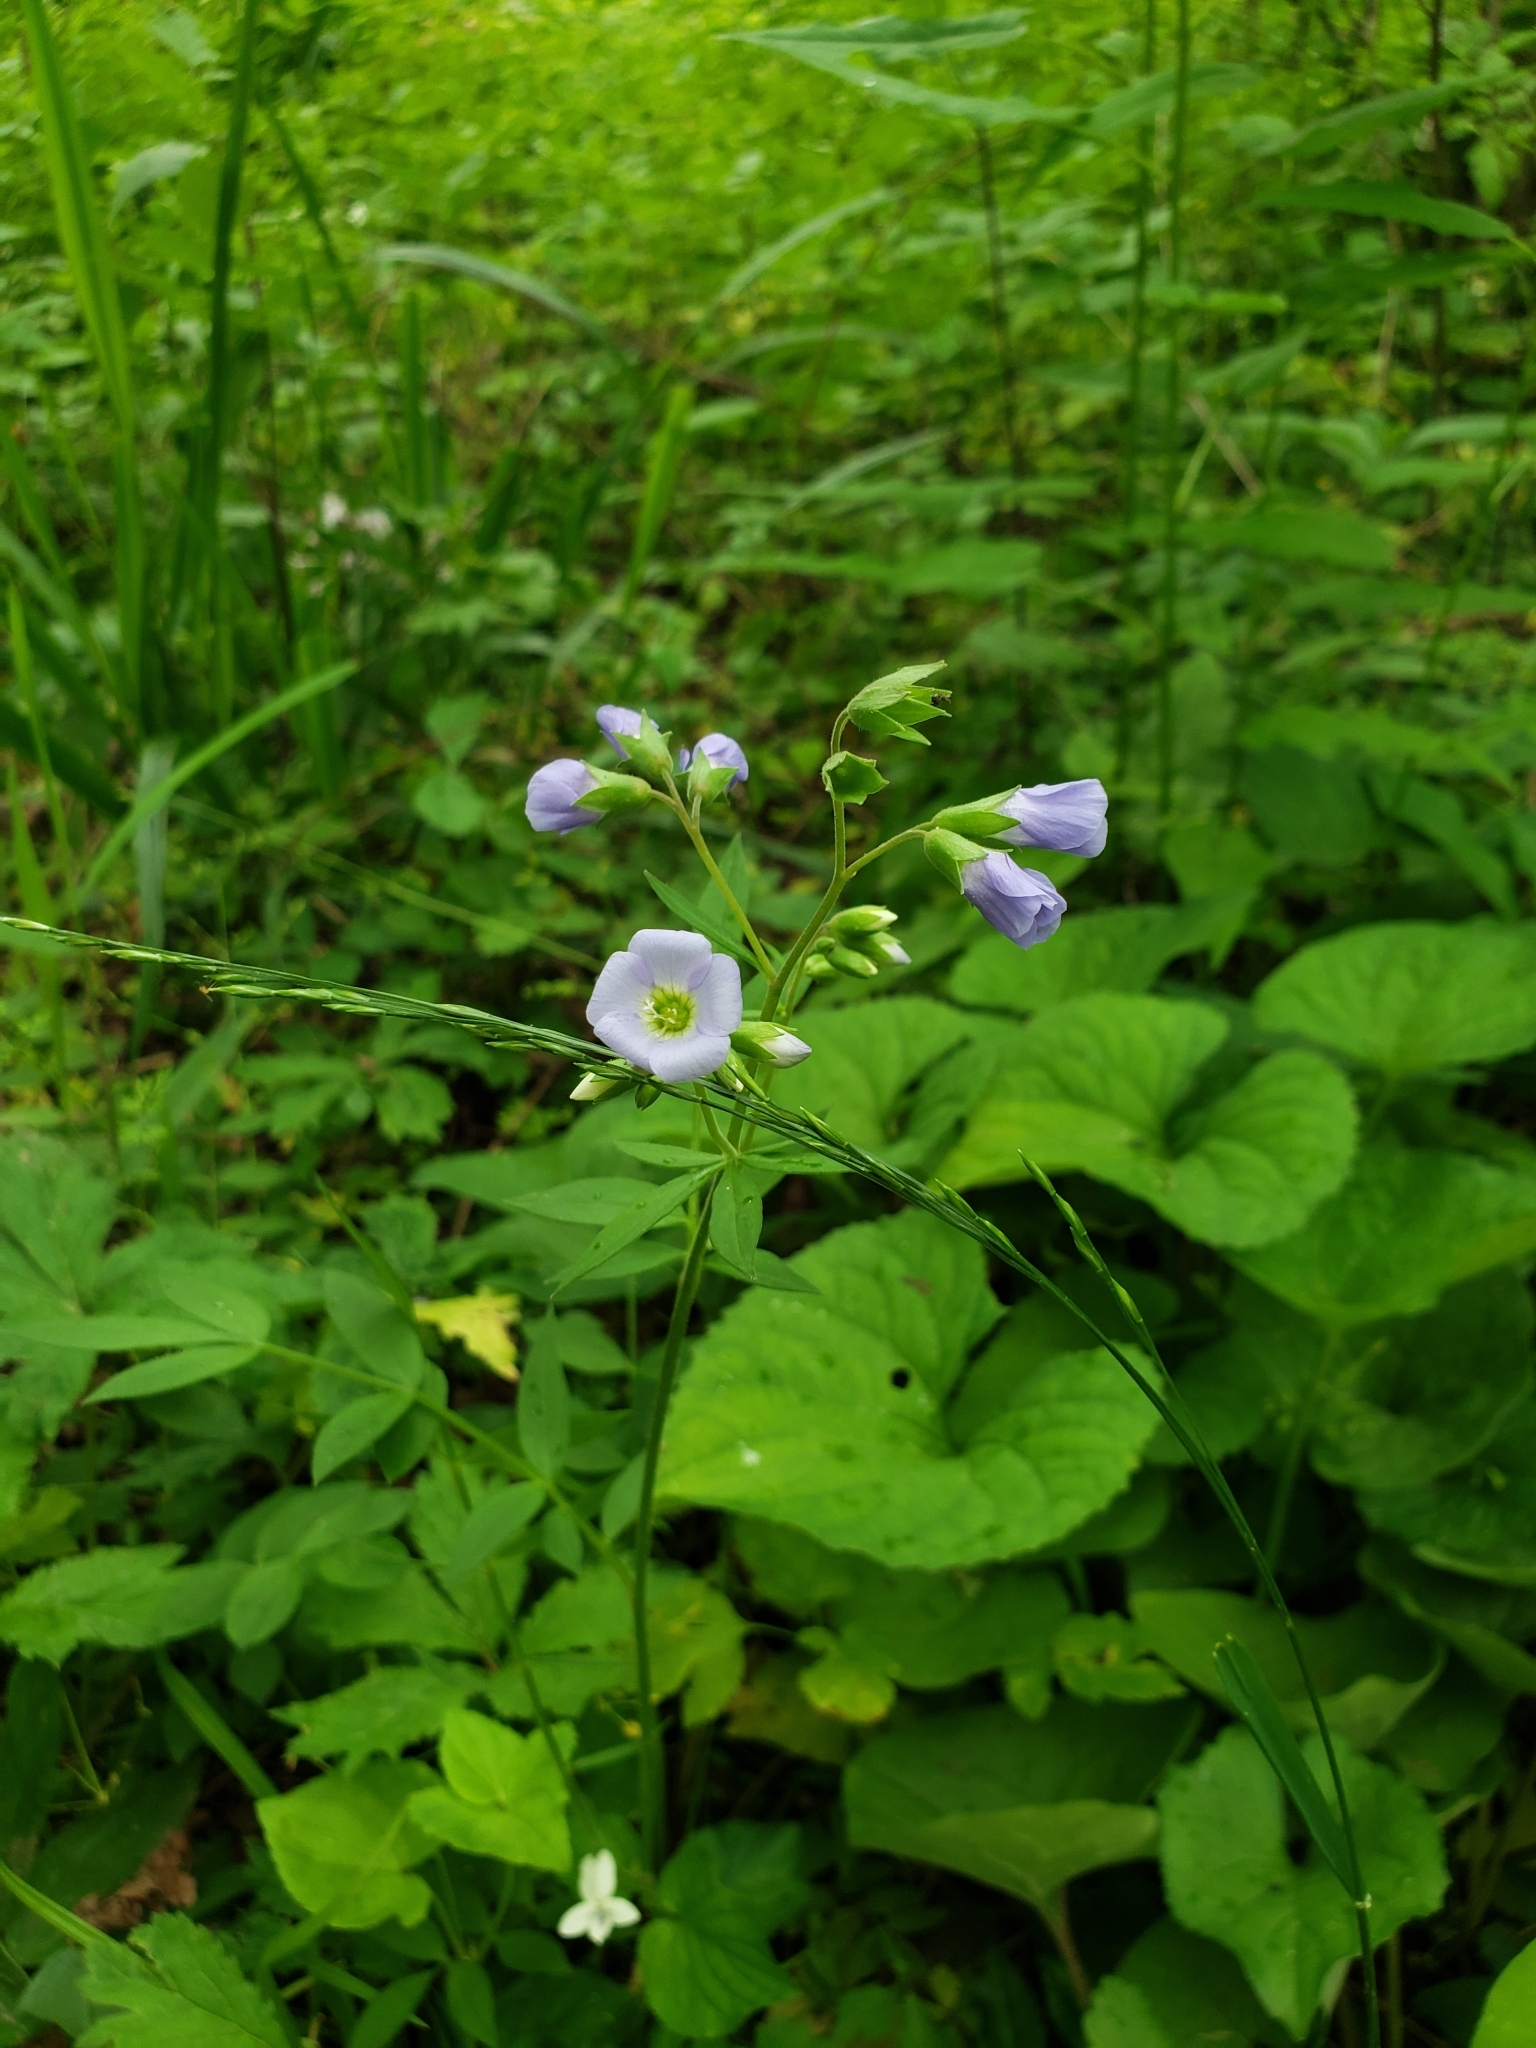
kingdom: Plantae
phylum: Tracheophyta
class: Magnoliopsida
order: Ericales
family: Polemoniaceae
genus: Polemonium
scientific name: Polemonium reptans
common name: Creeping jacob's-ladder
